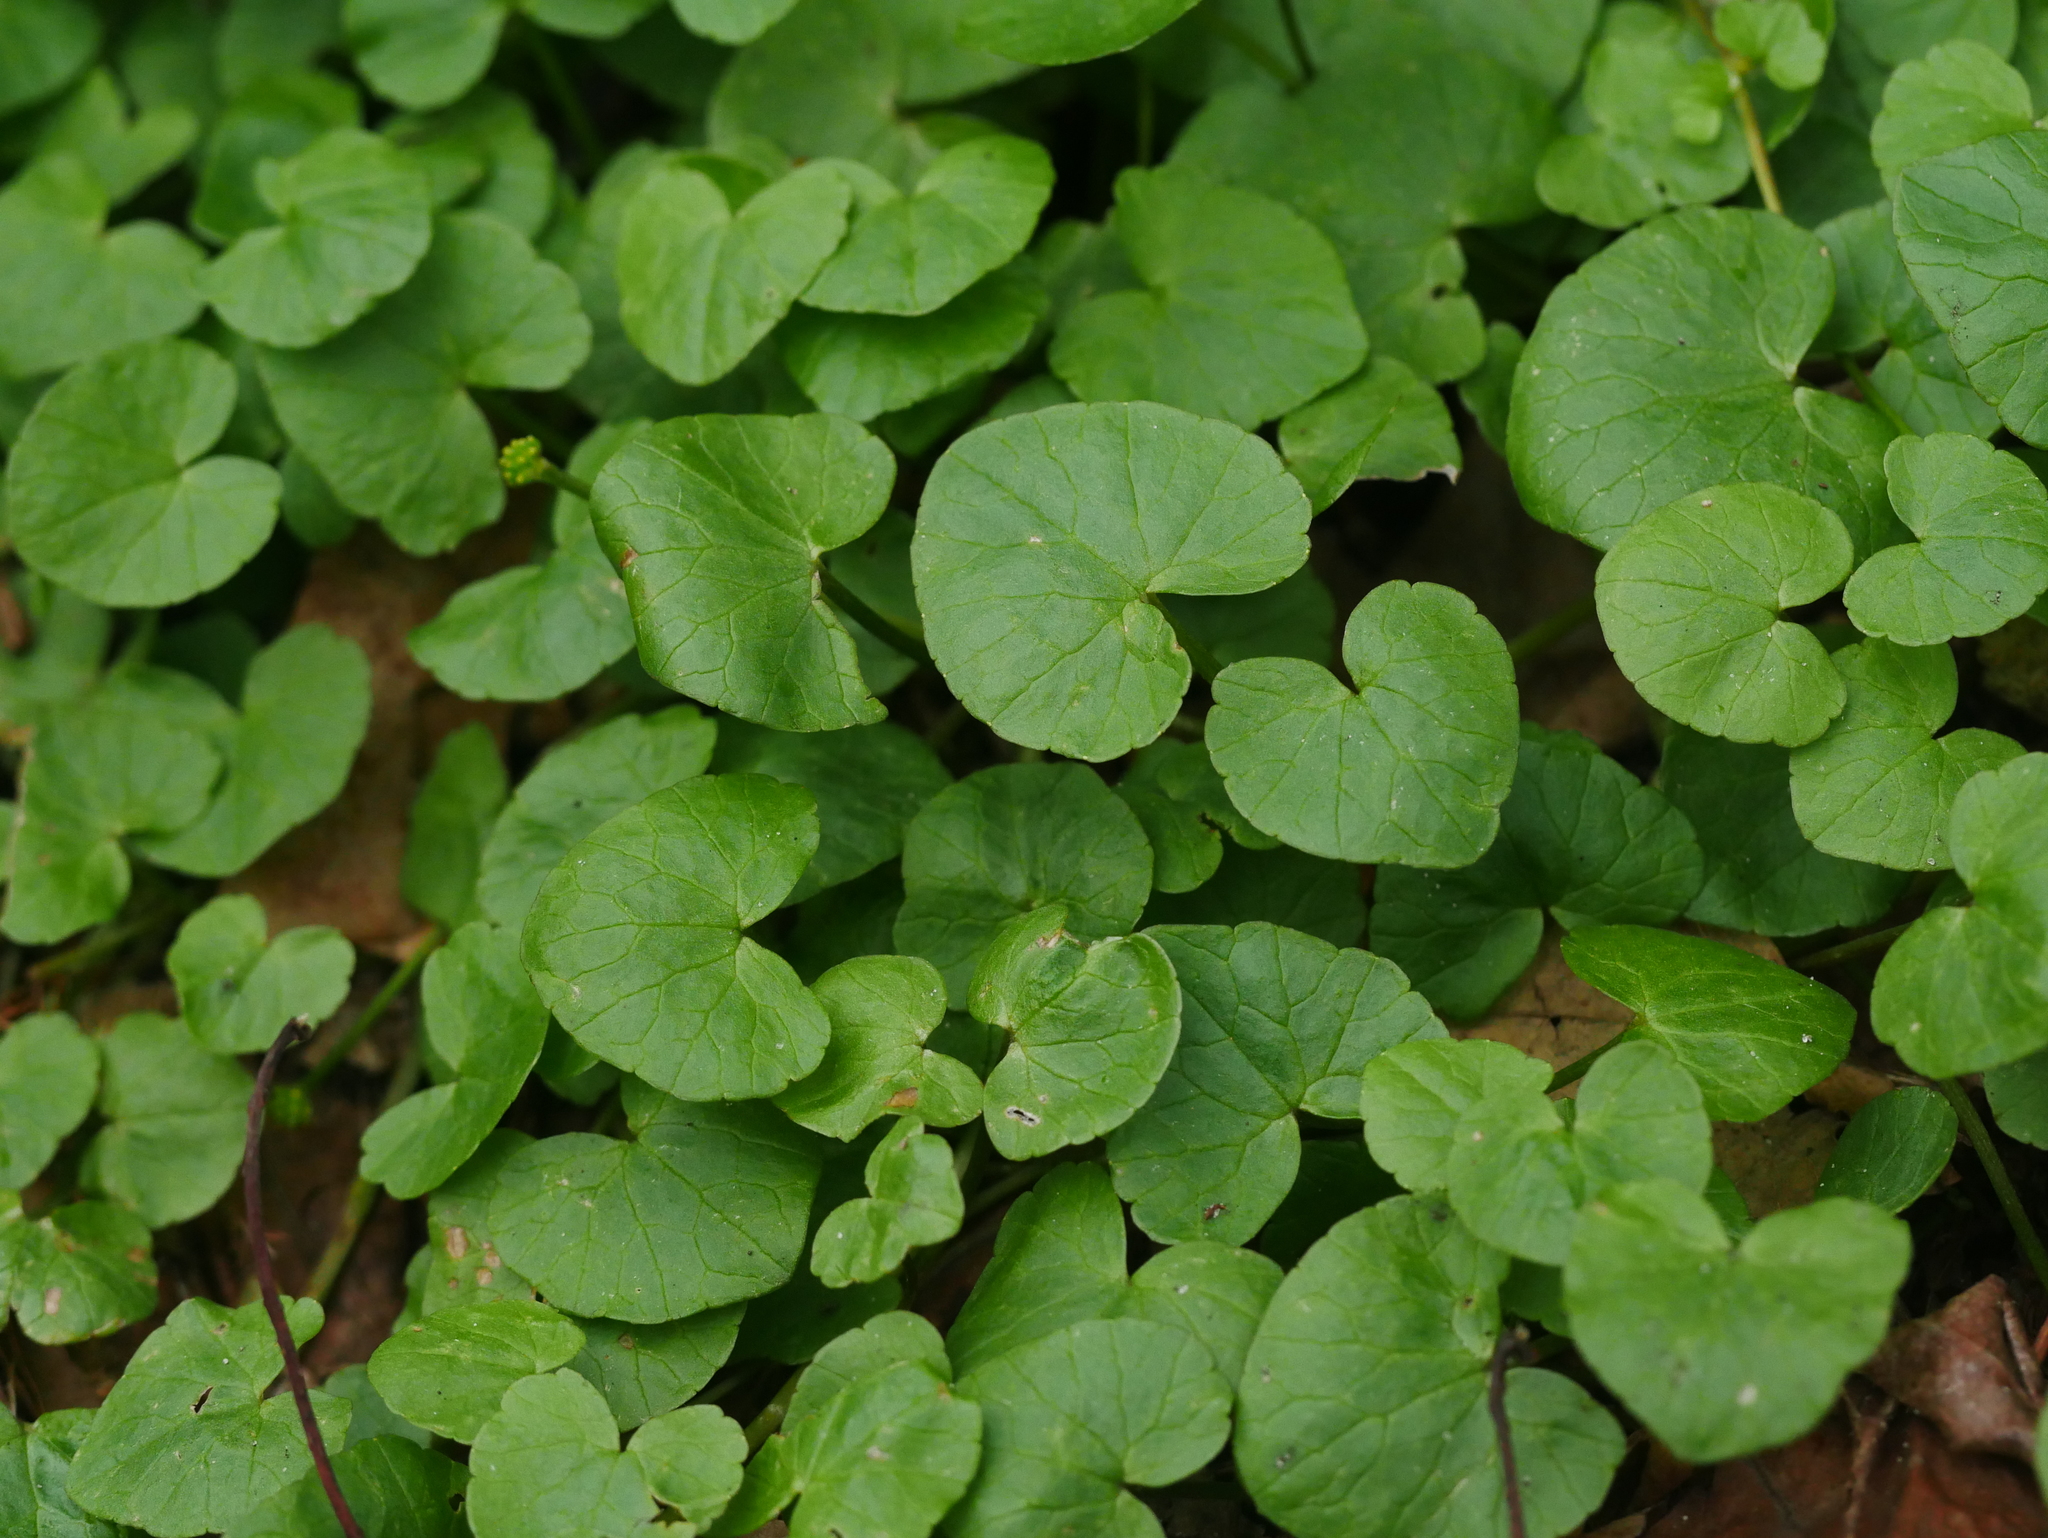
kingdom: Plantae
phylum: Tracheophyta
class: Magnoliopsida
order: Ranunculales
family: Ranunculaceae
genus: Ficaria
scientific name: Ficaria verna
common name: Lesser celandine
